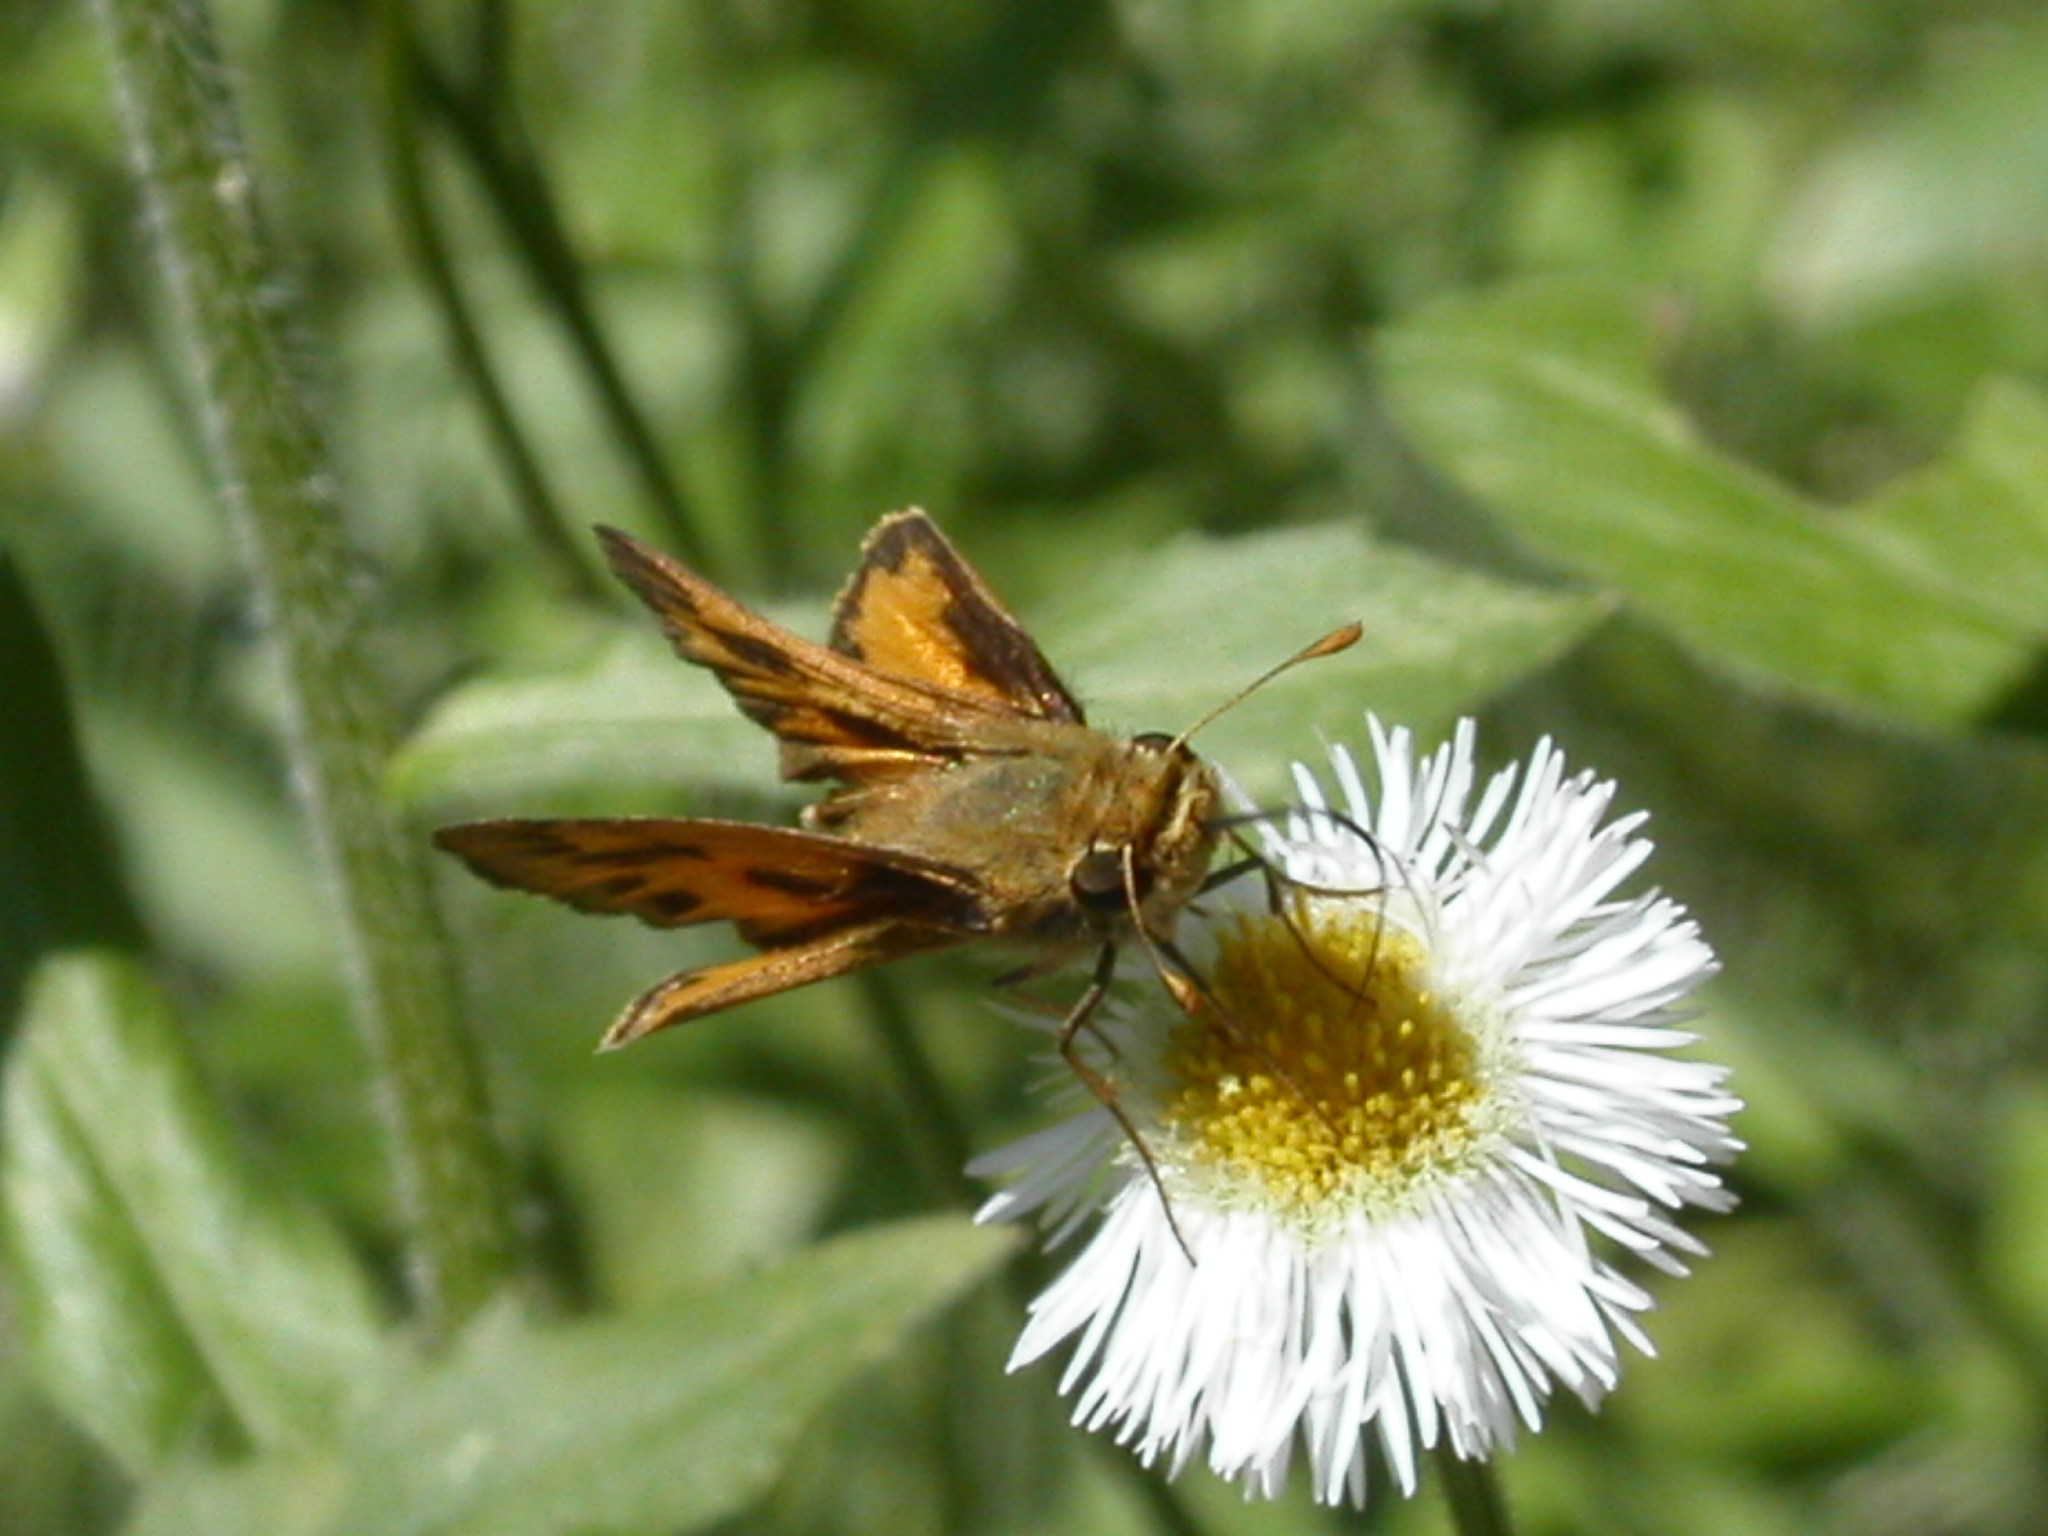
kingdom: Animalia
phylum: Arthropoda
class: Insecta
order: Lepidoptera
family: Hesperiidae
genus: Hylephila
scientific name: Hylephila phyleus
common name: Fiery skipper
